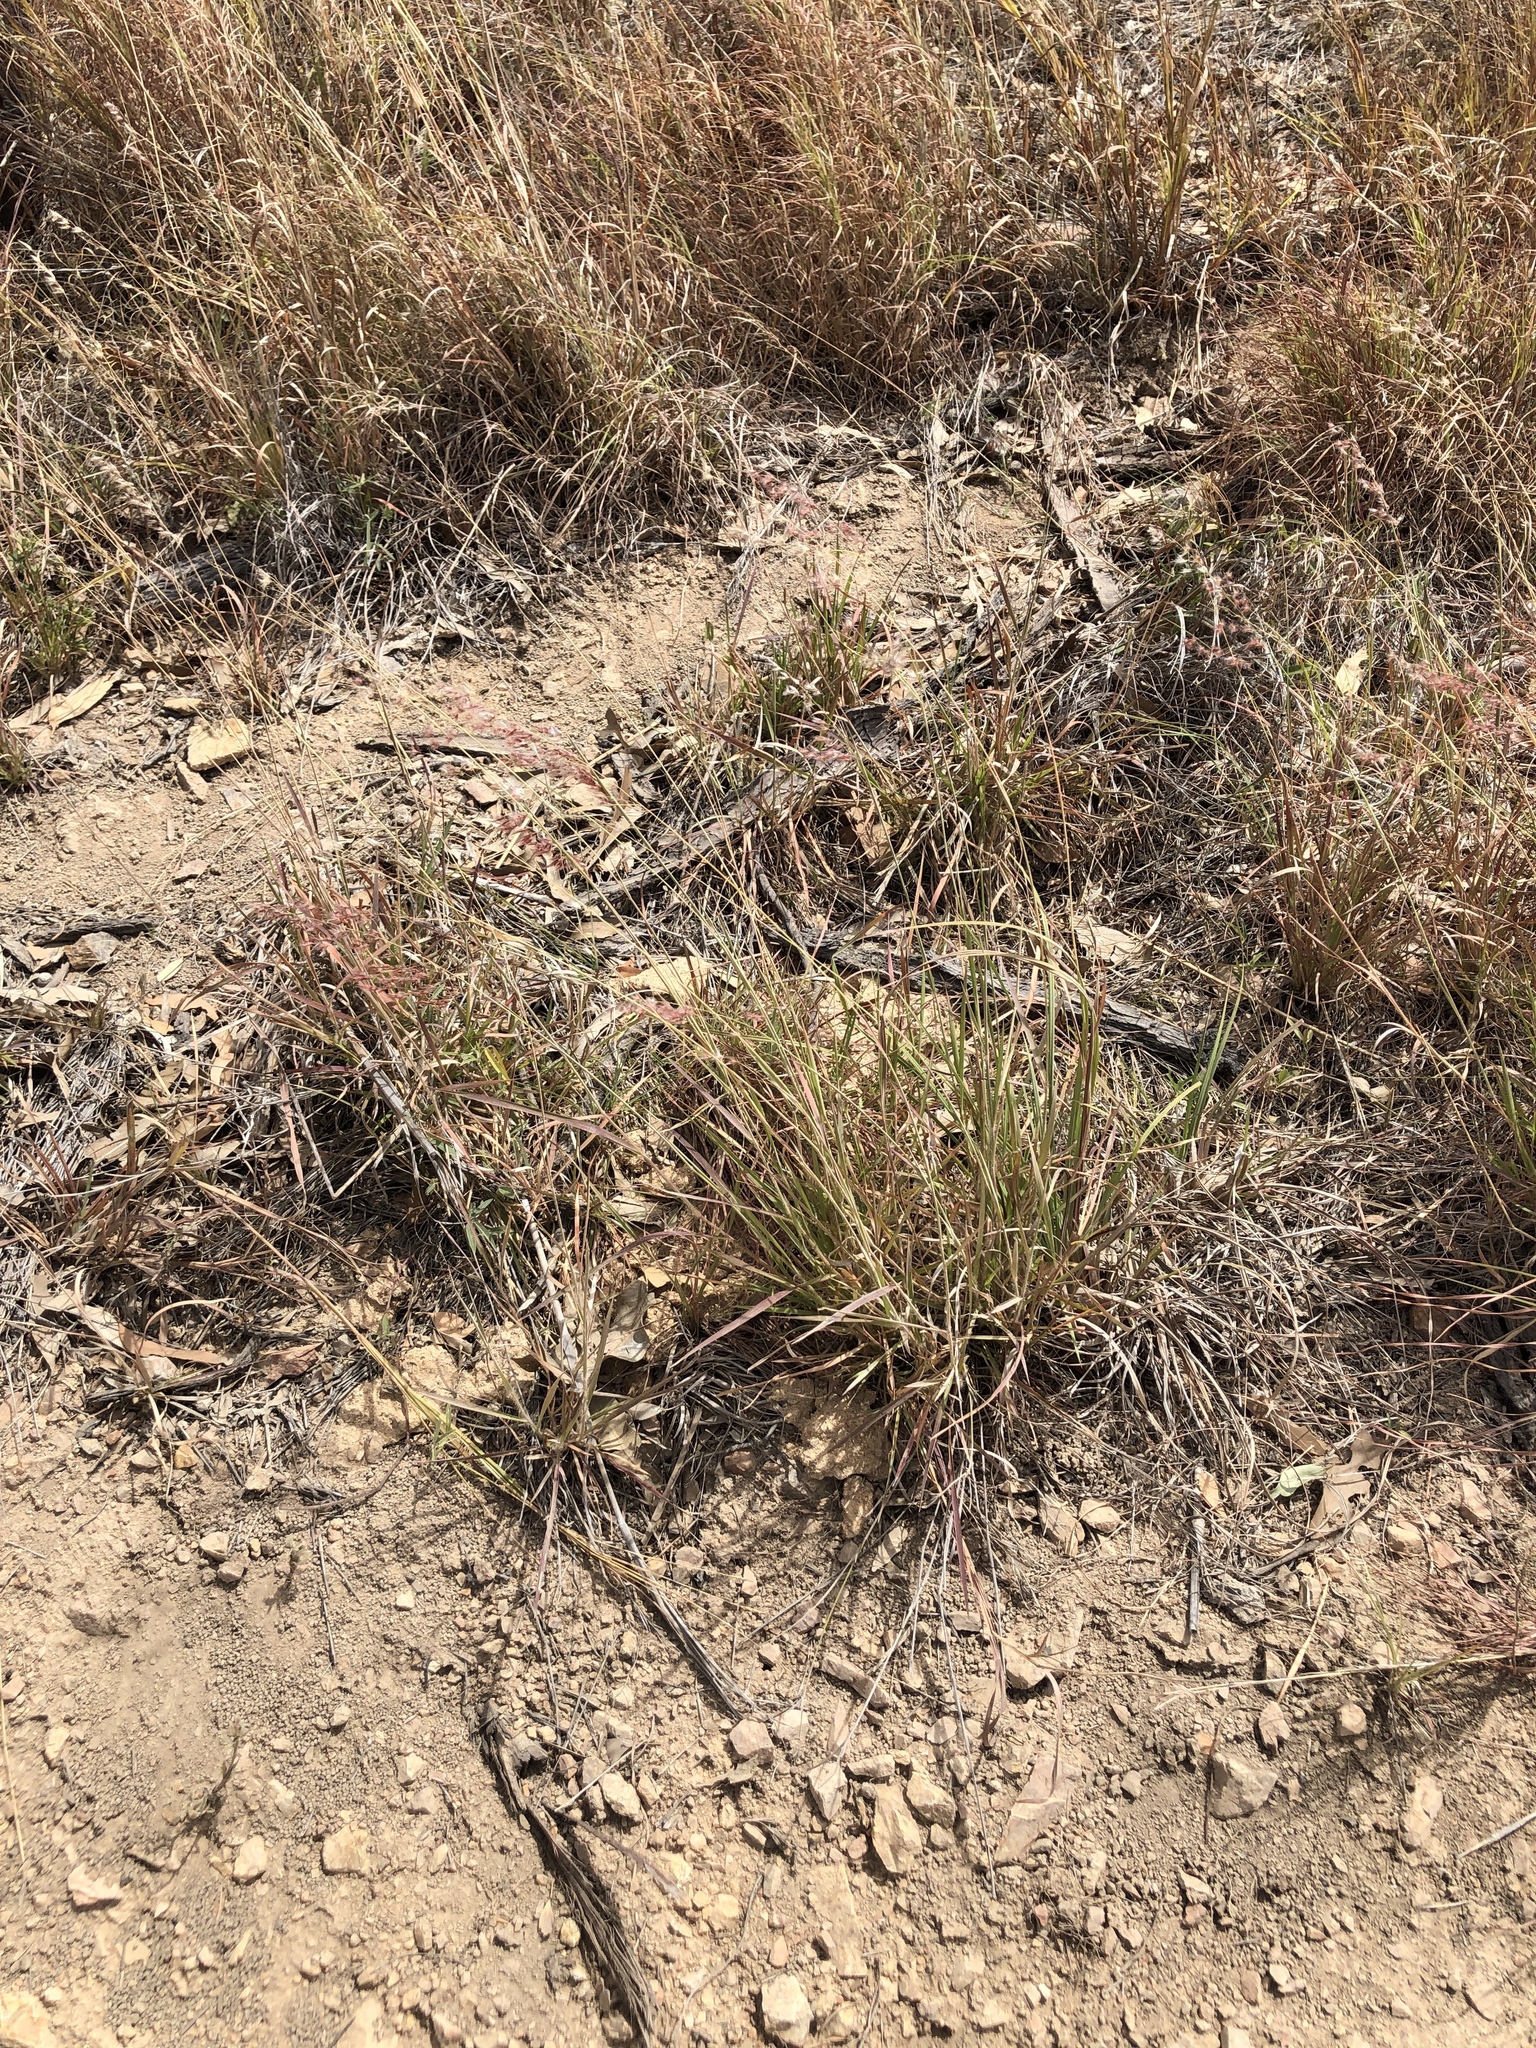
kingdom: Plantae
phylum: Tracheophyta
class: Liliopsida
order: Poales
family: Poaceae
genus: Melinis
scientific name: Melinis repens
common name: Rose natal grass
